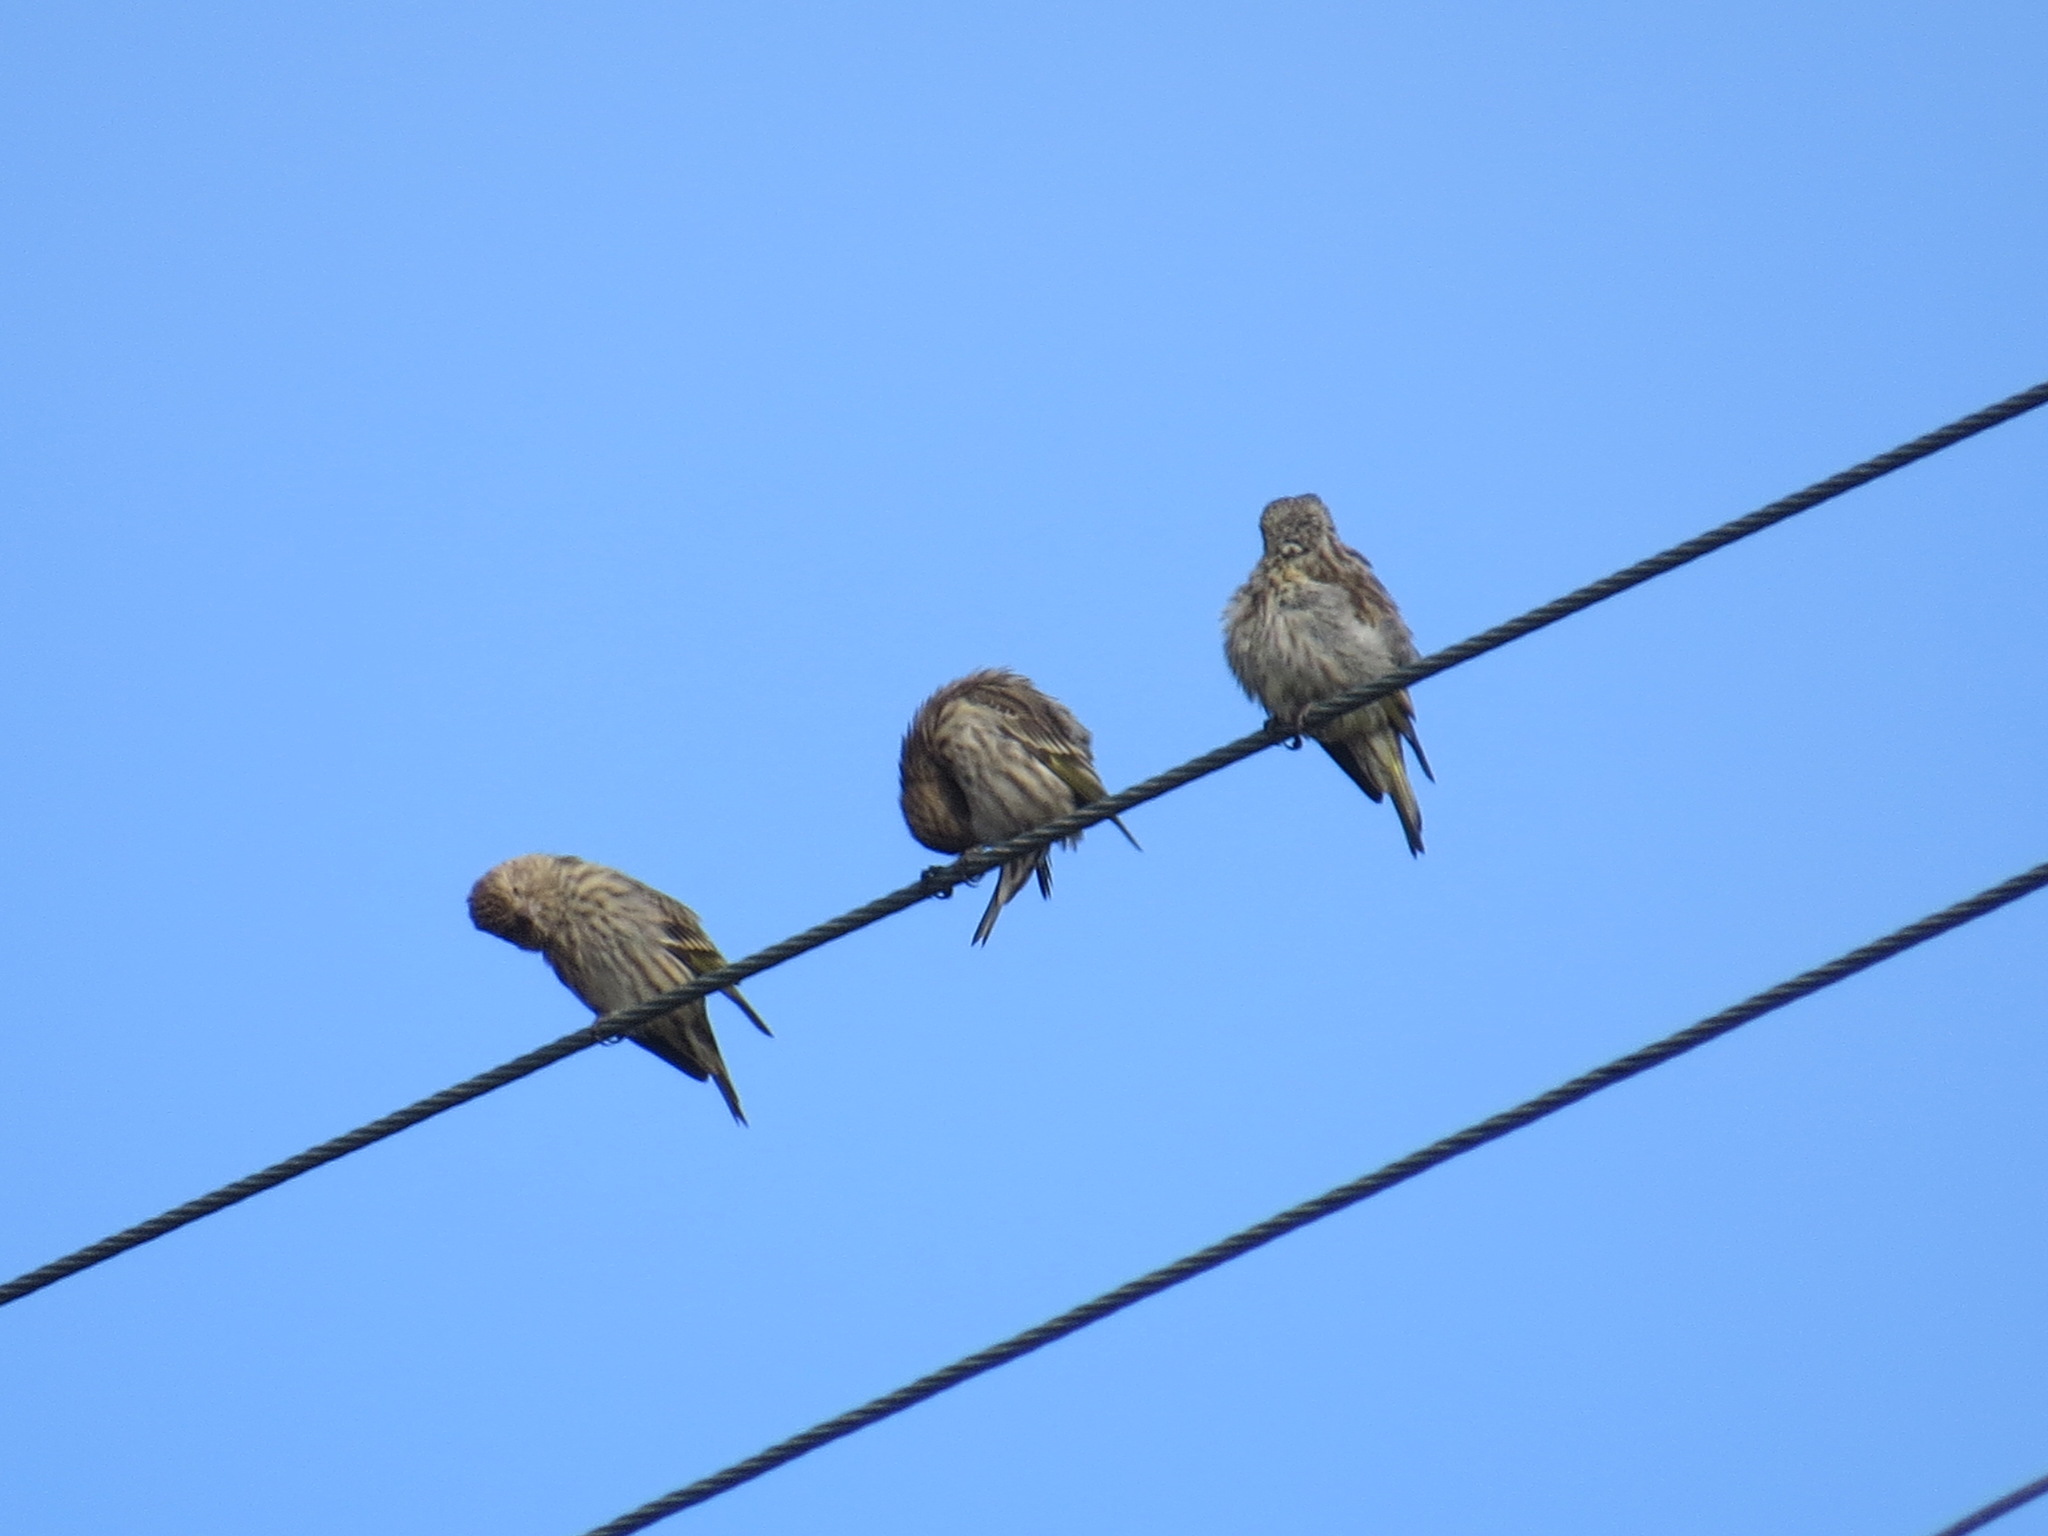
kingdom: Animalia
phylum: Chordata
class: Aves
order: Passeriformes
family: Fringillidae
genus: Spinus
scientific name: Spinus pinus
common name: Pine siskin
